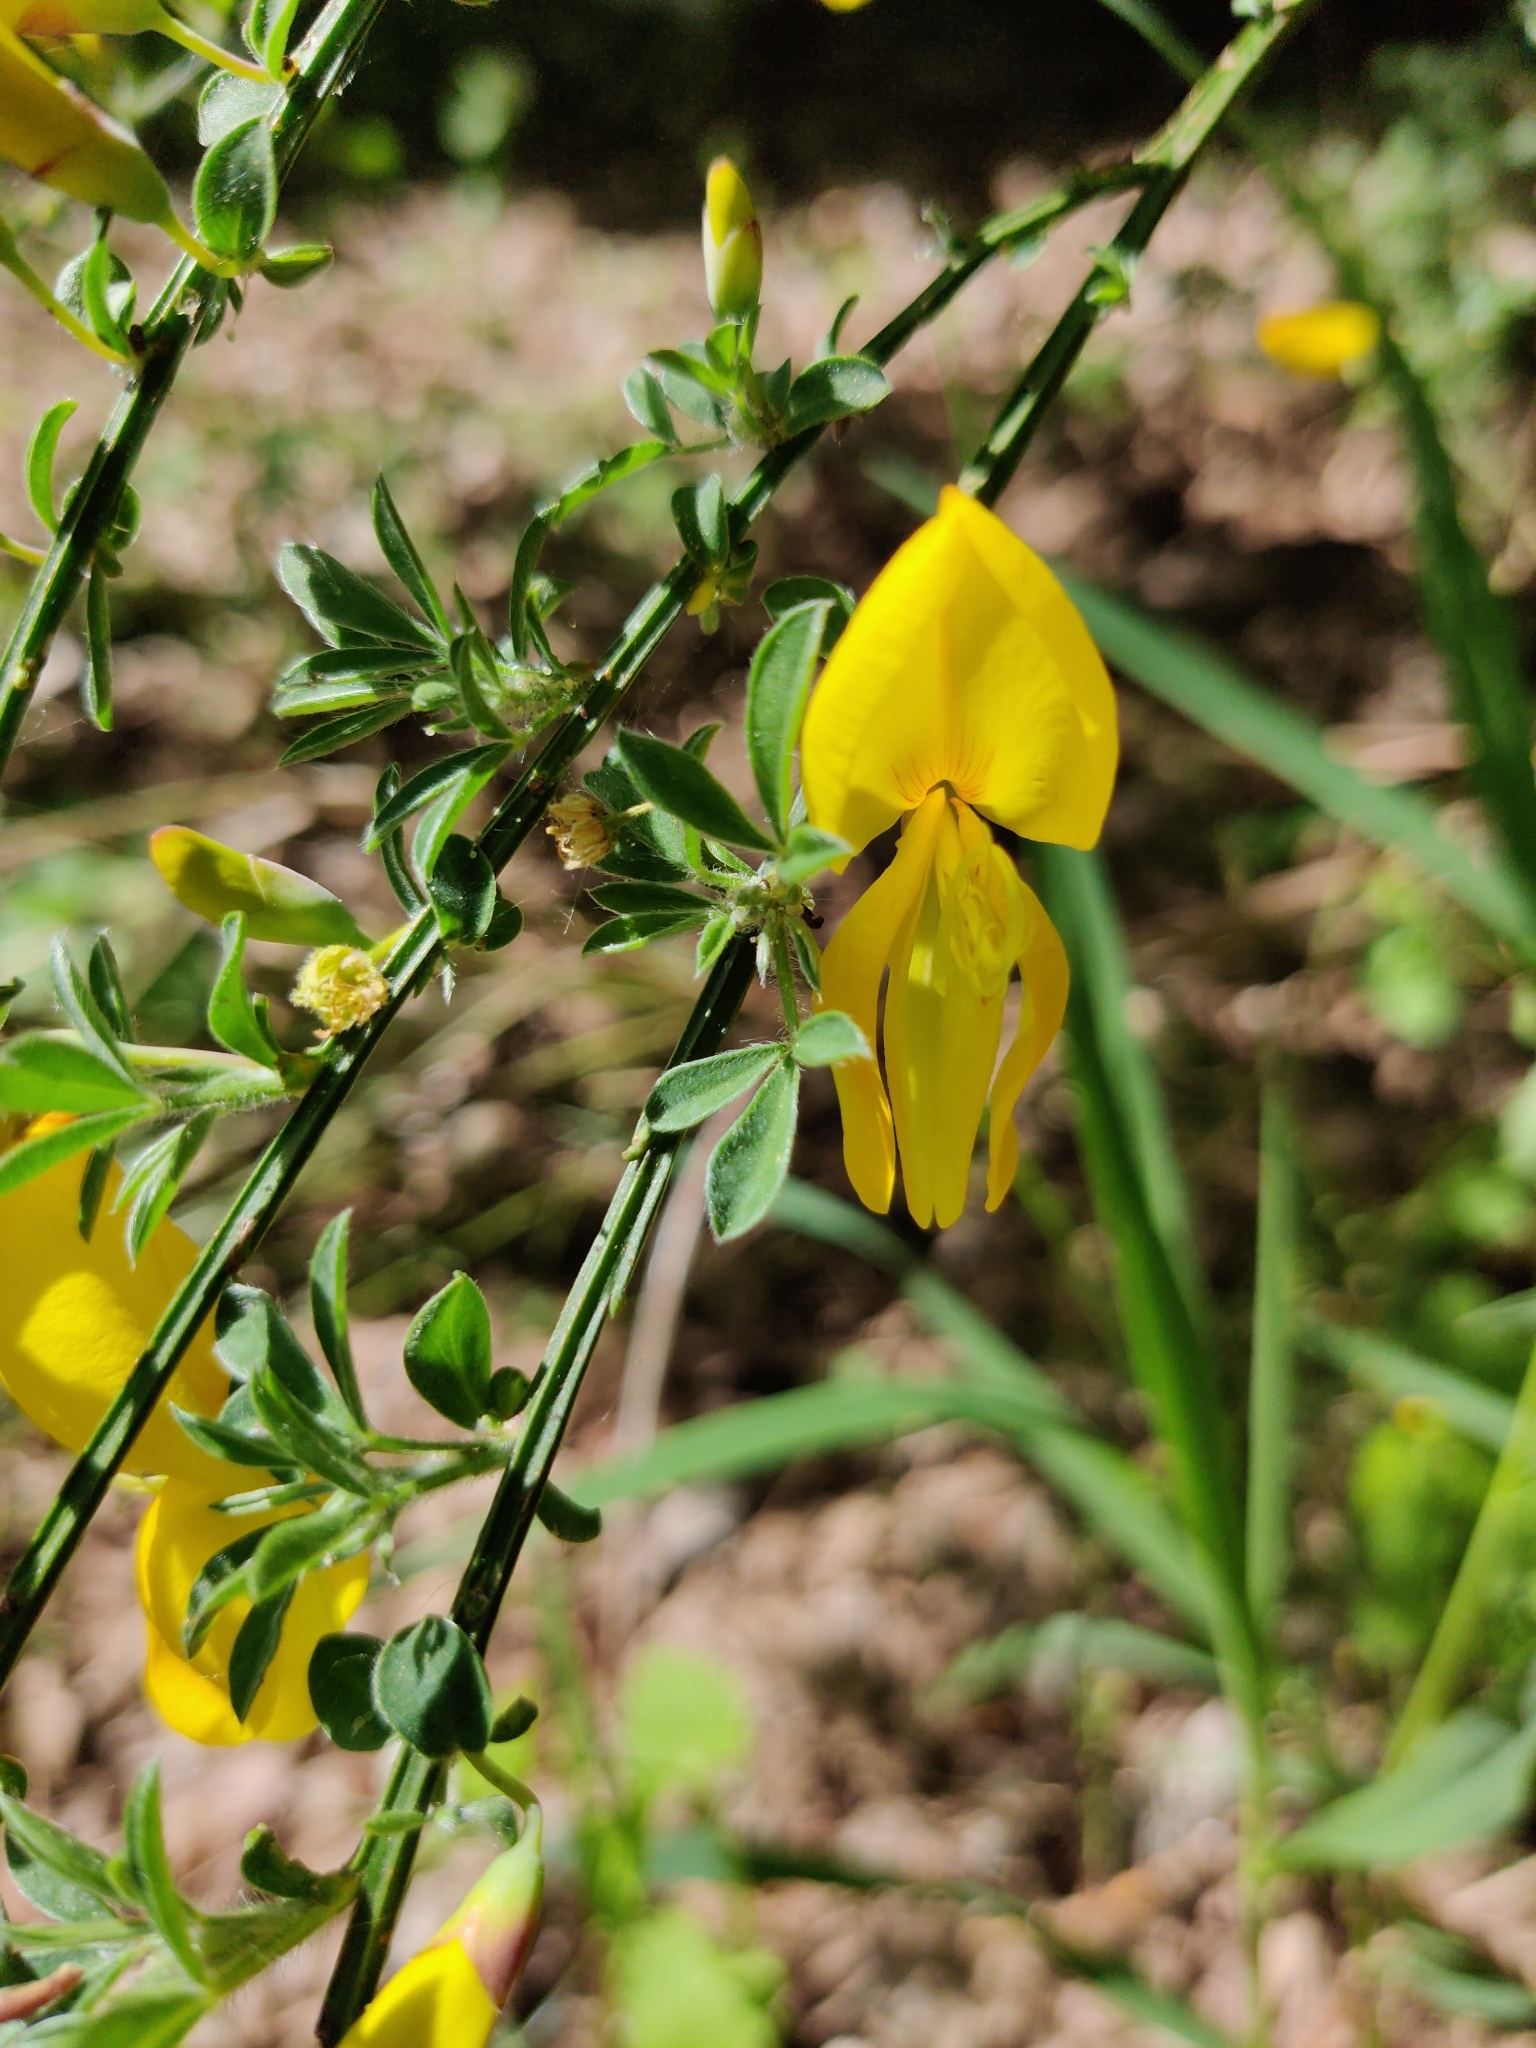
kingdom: Plantae
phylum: Tracheophyta
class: Magnoliopsida
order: Fabales
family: Fabaceae
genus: Cytisus
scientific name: Cytisus scoparius
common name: Scotch broom
